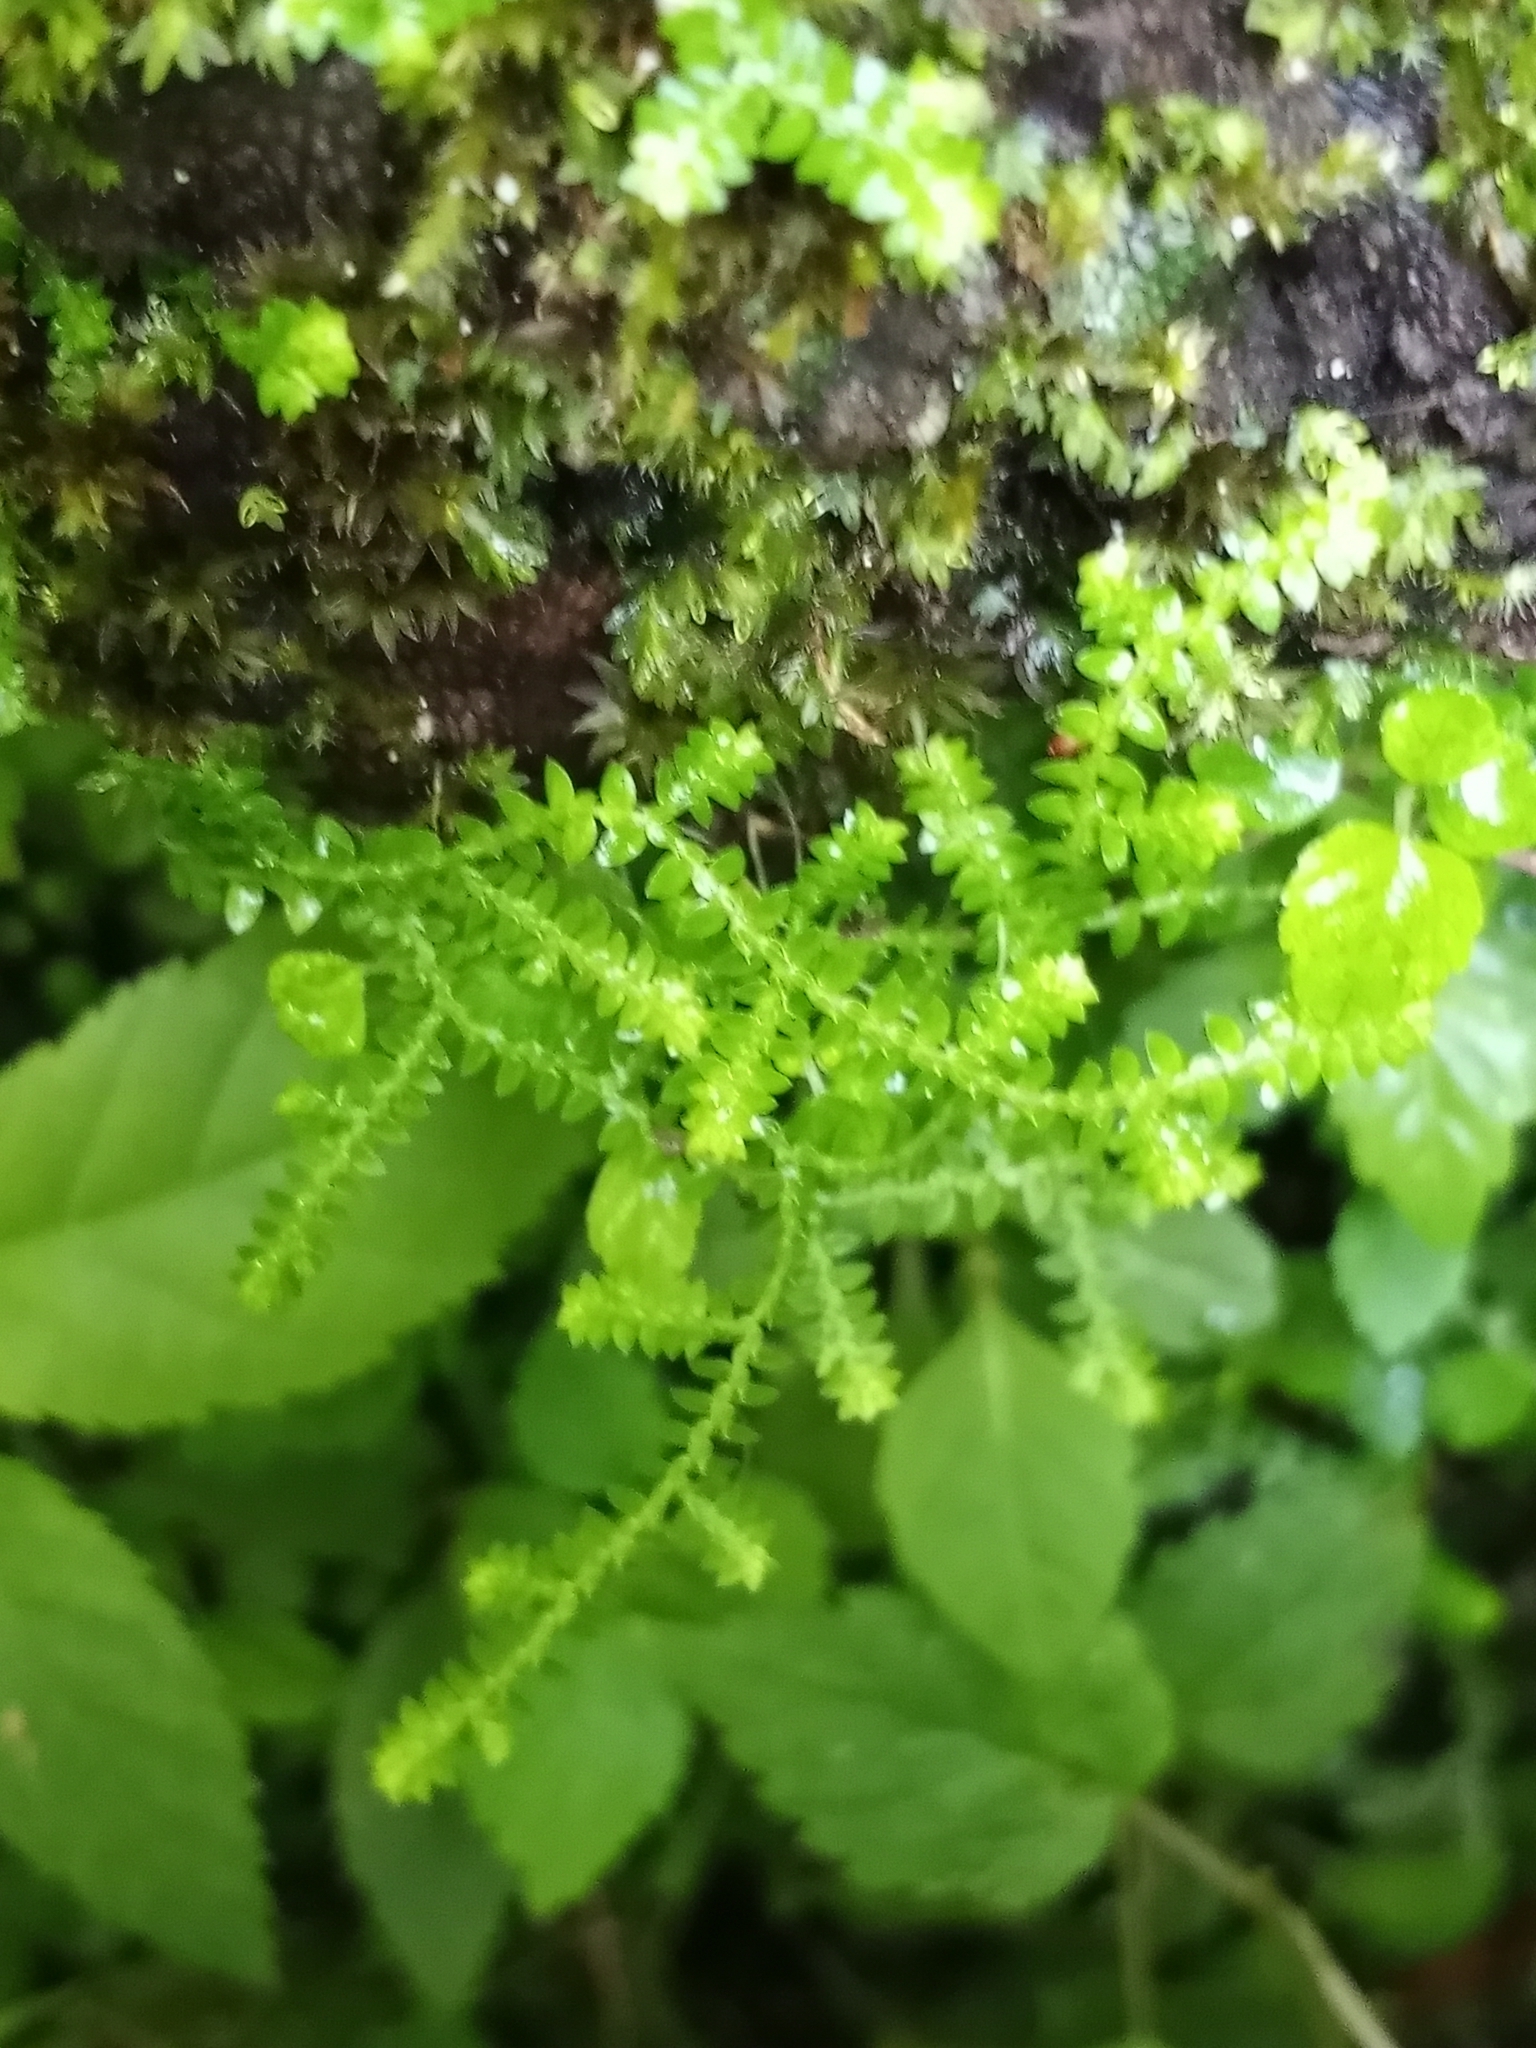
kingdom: Plantae
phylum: Tracheophyta
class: Lycopodiopsida
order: Selaginellales
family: Selaginellaceae
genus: Selaginella
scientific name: Selaginella apoda
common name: Creeping spikemoss
